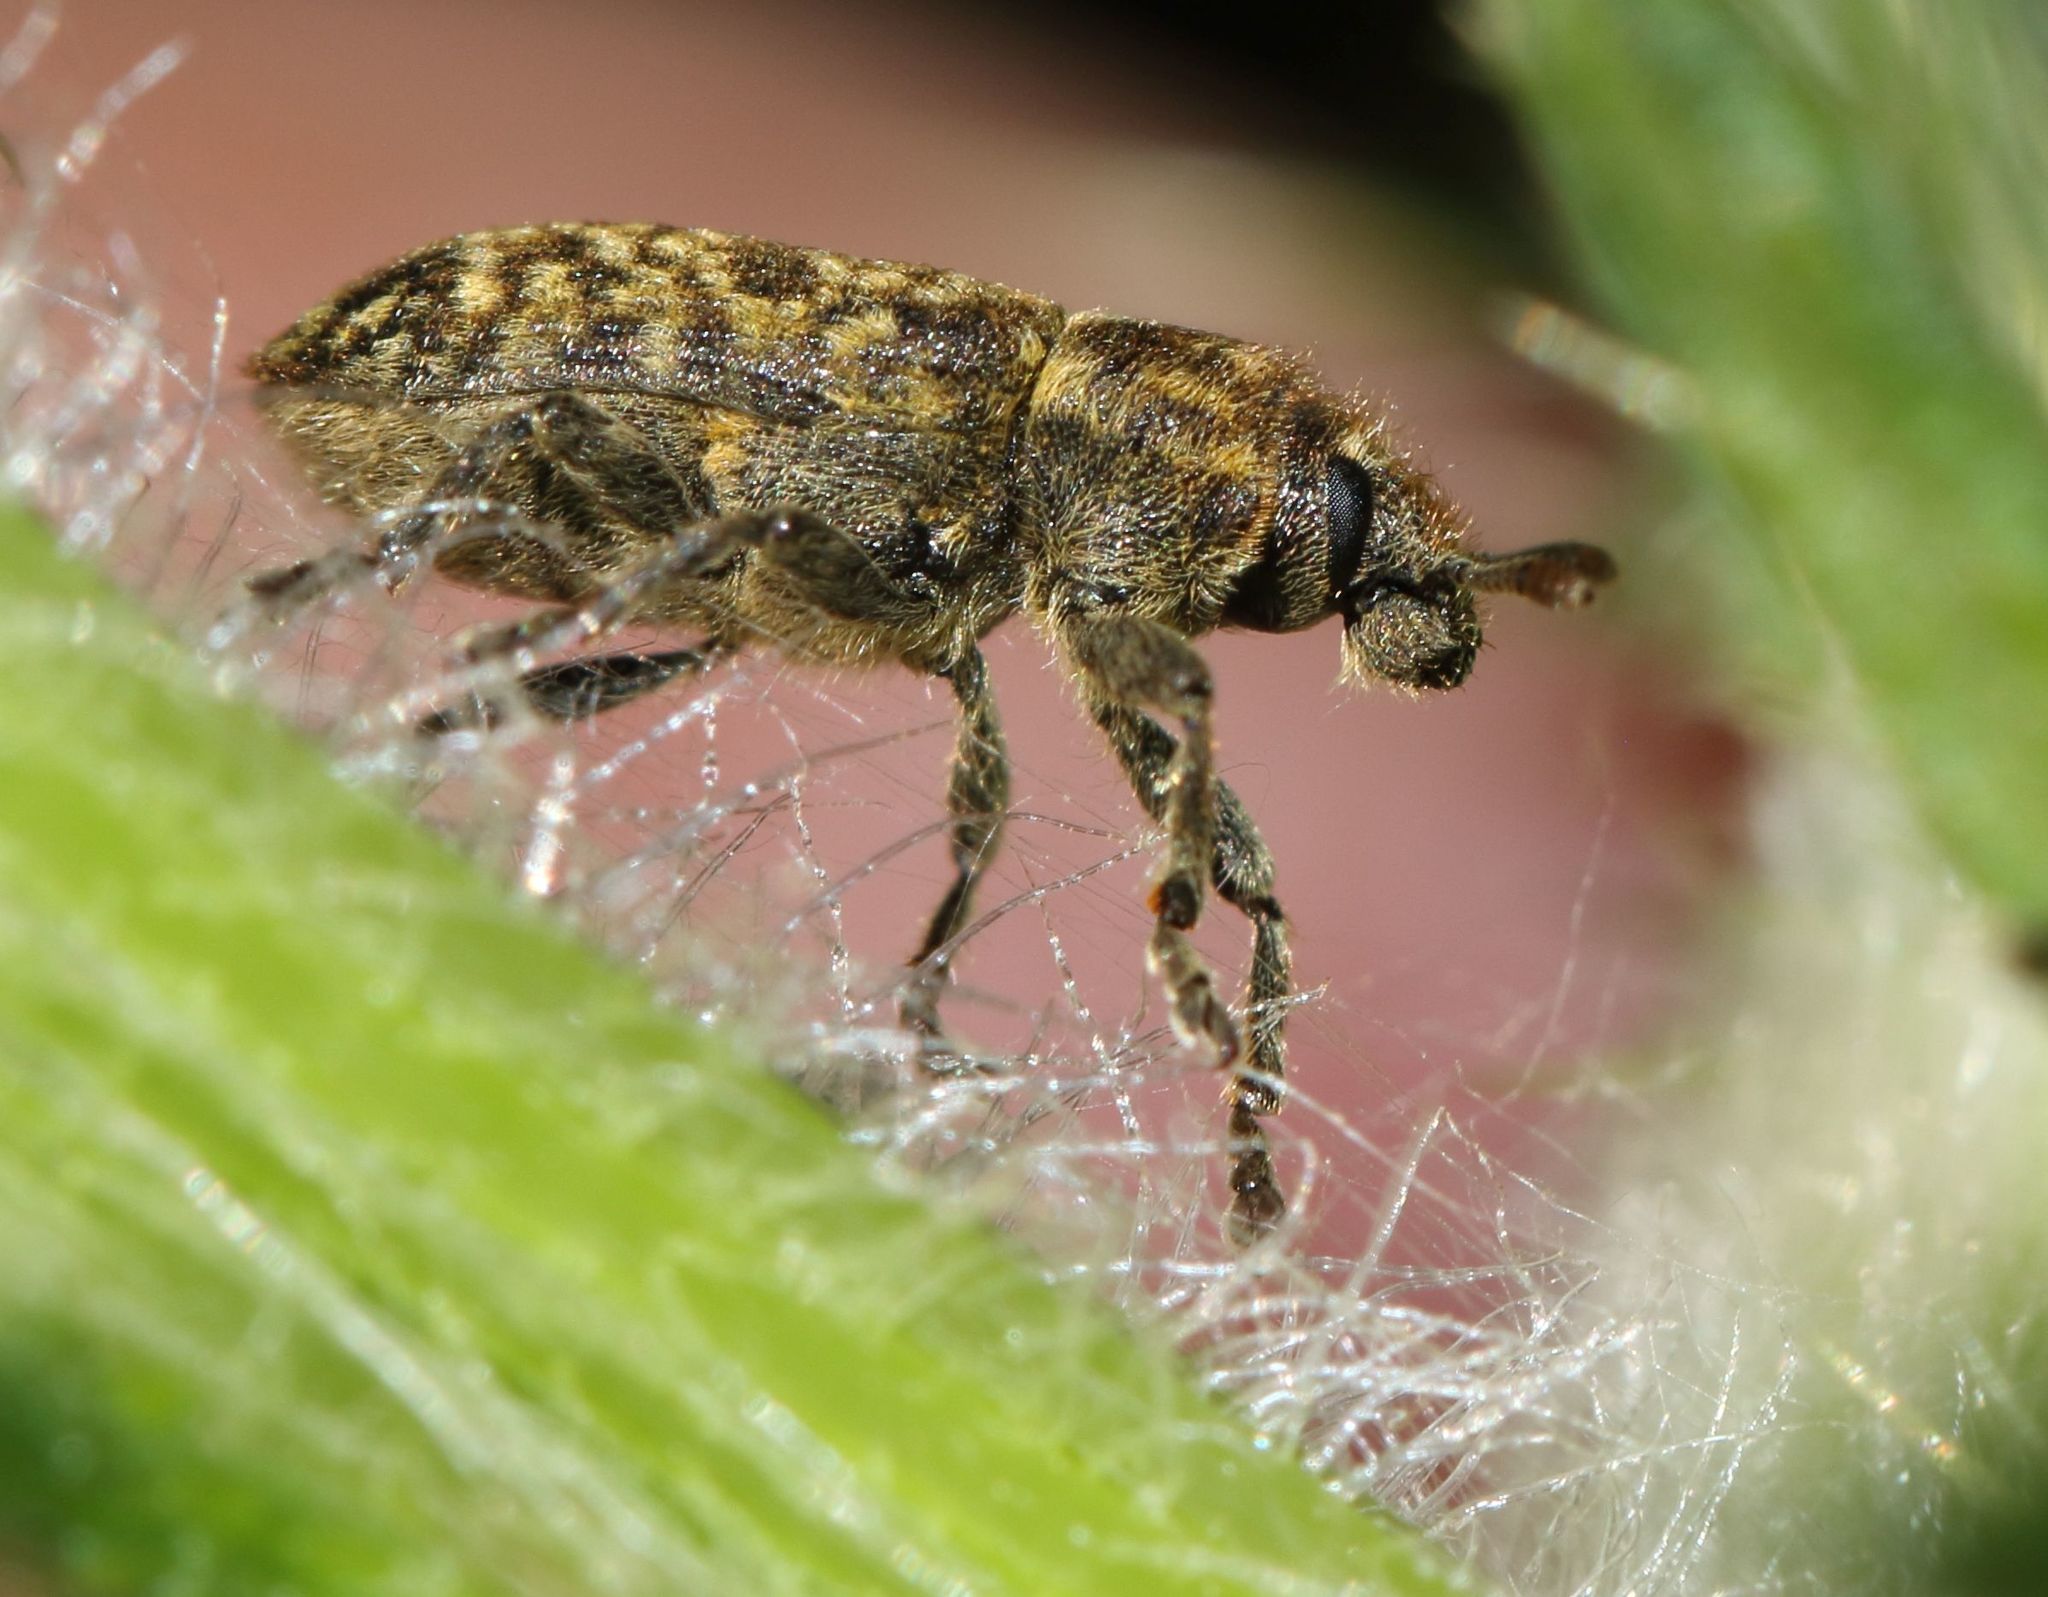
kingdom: Animalia
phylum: Arthropoda
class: Insecta
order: Coleoptera
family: Curculionidae
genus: Rhinocyllus
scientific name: Rhinocyllus conicus
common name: Weevil
